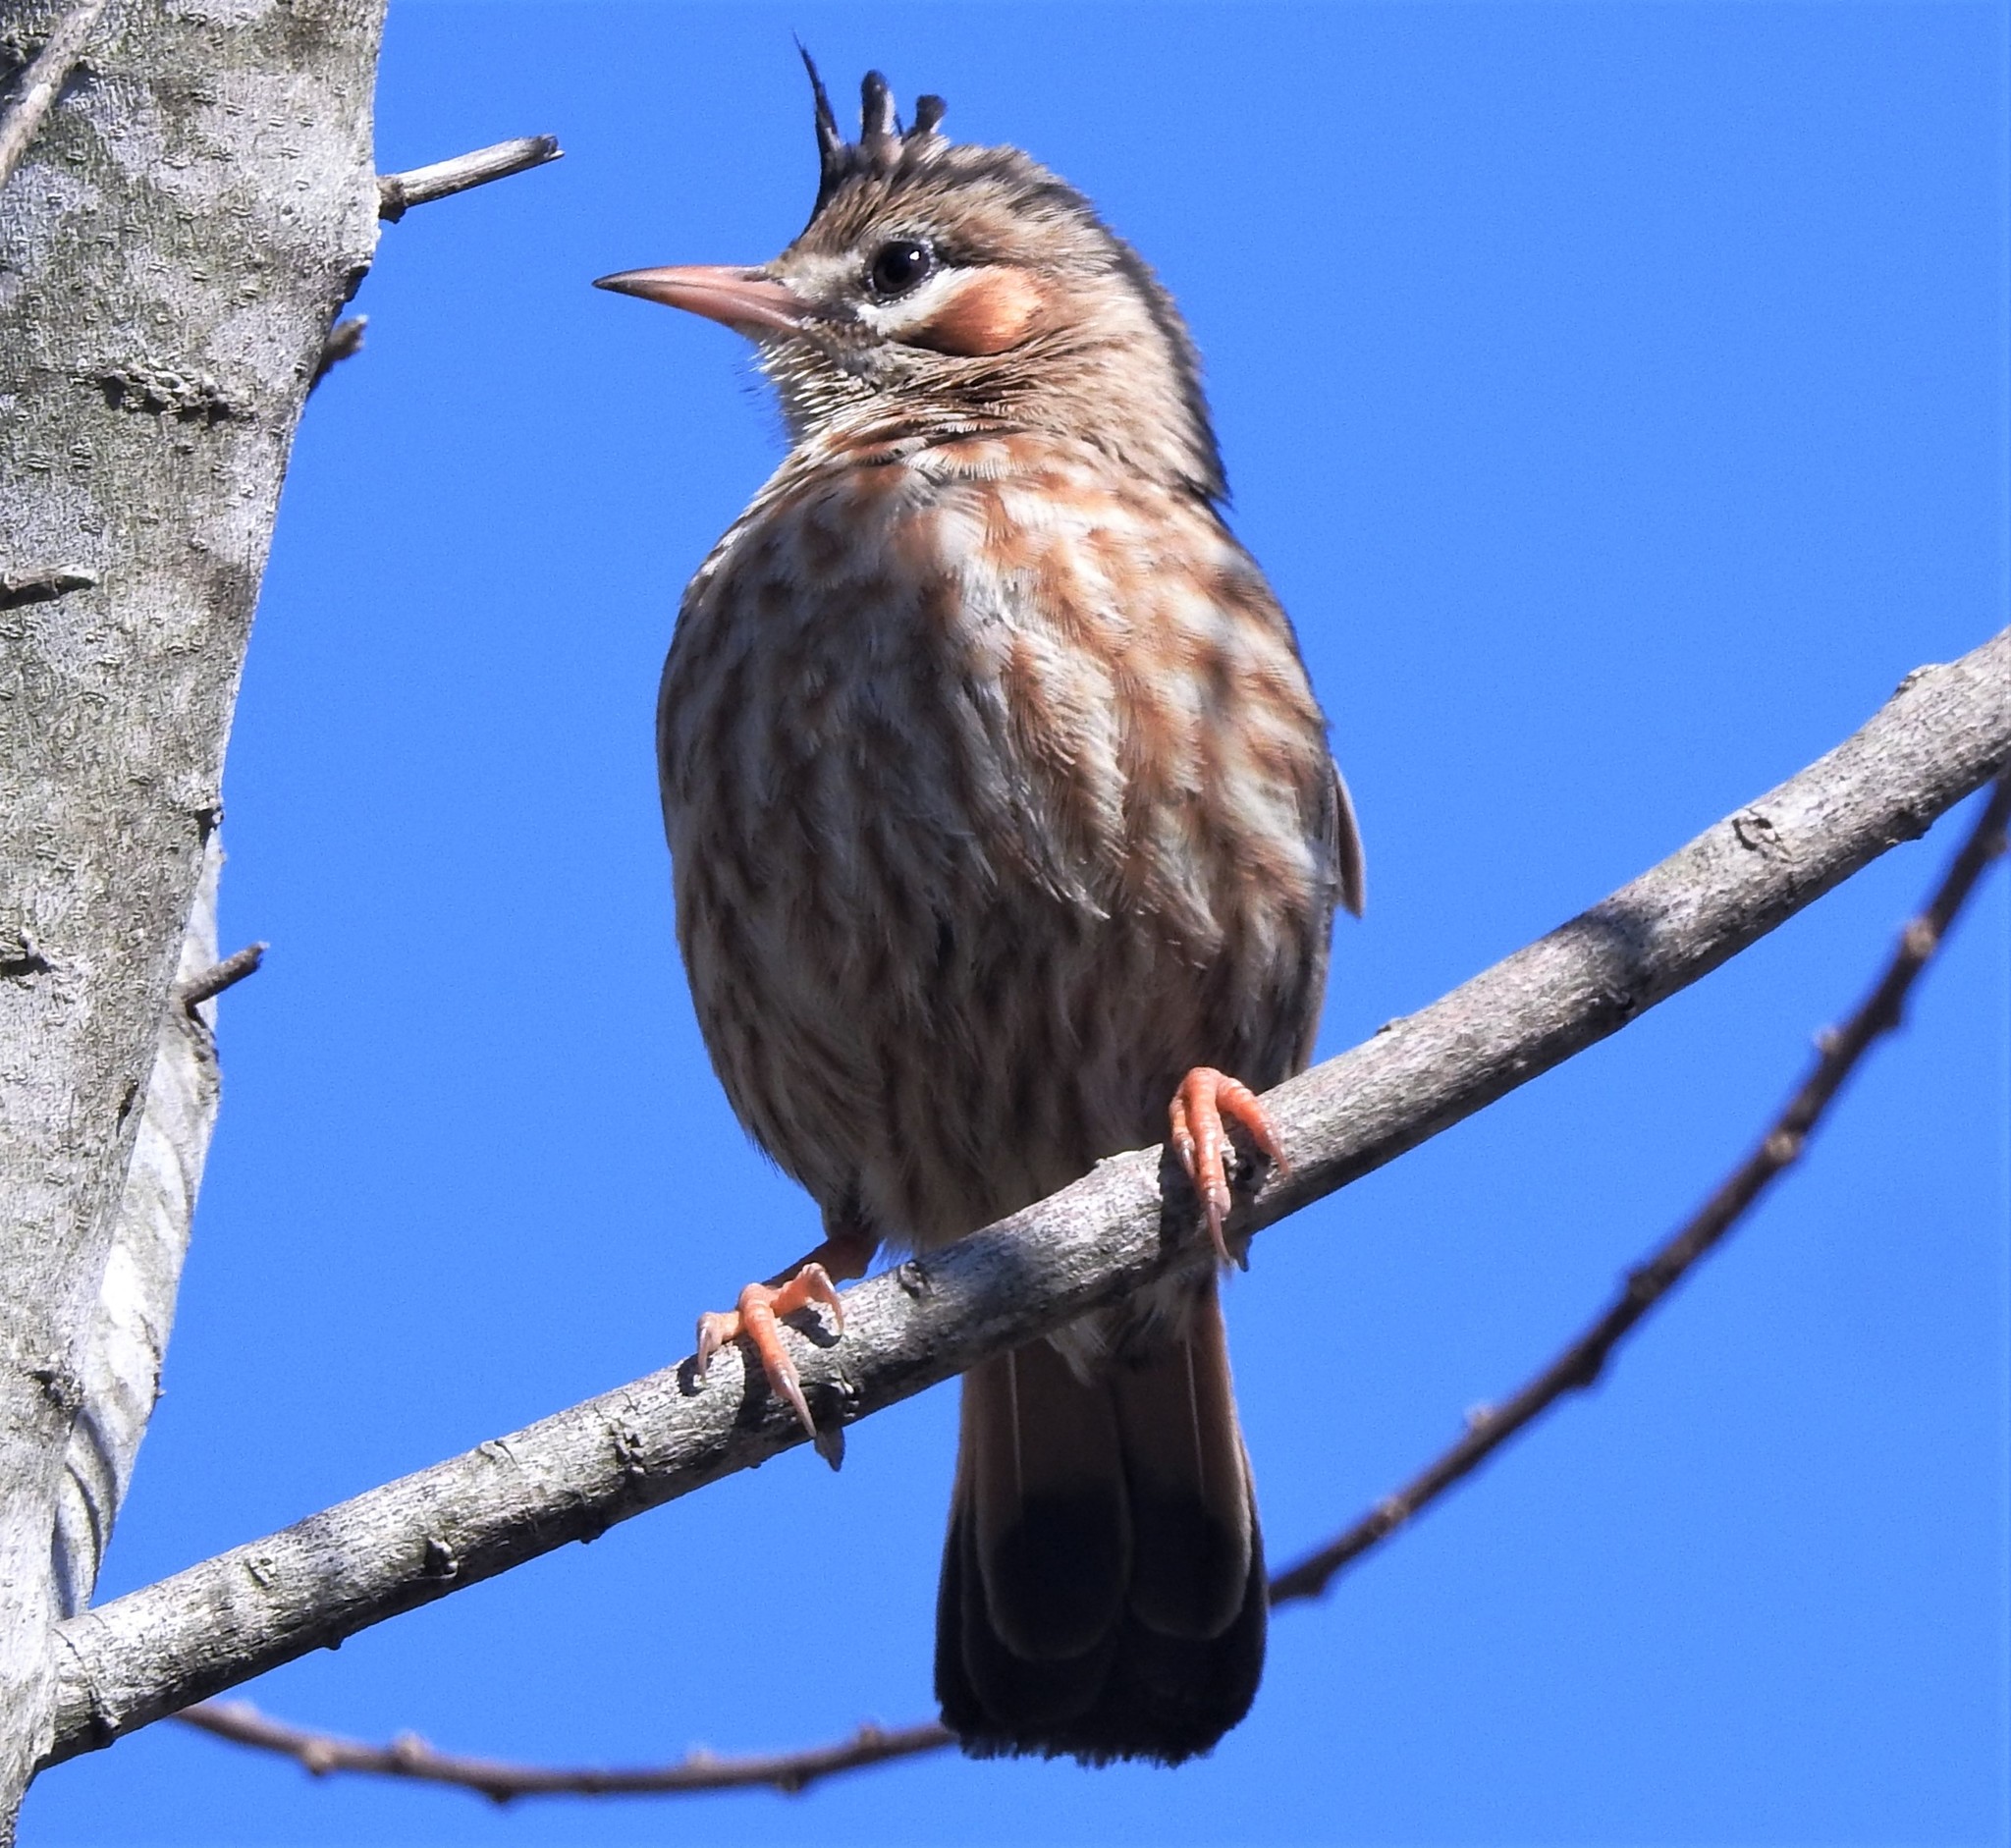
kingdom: Animalia
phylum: Chordata
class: Aves
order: Passeriformes
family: Furnariidae
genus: Coryphistera
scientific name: Coryphistera alaudina
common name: Lark-like brushrunner
